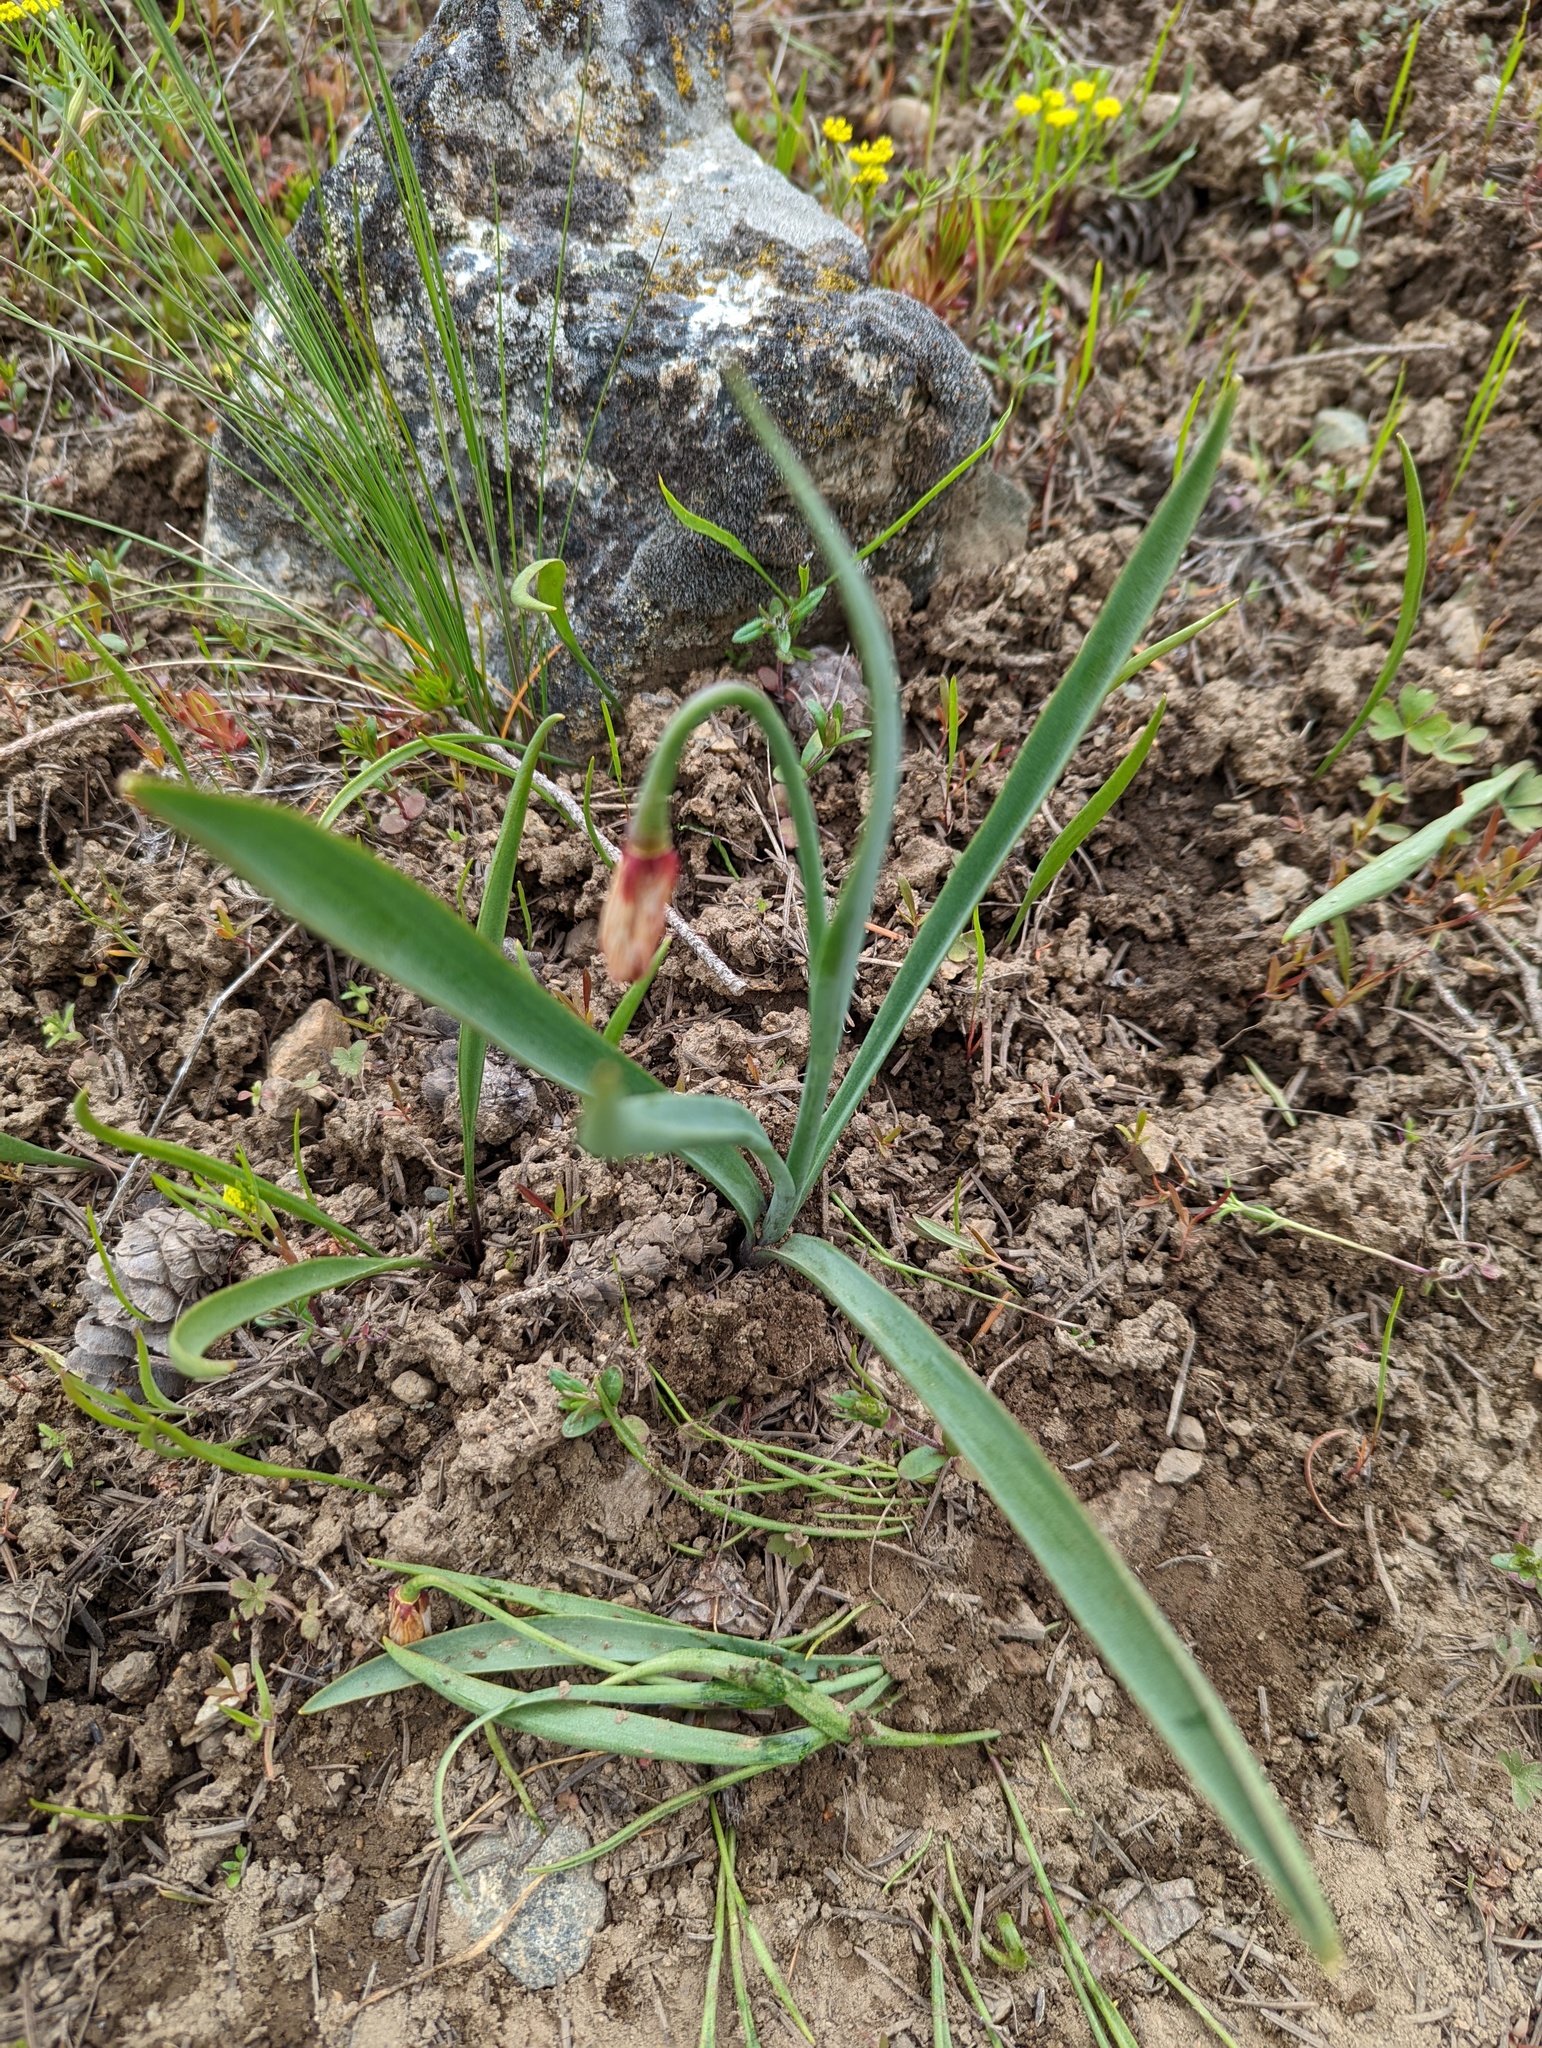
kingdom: Plantae
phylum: Tracheophyta
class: Liliopsida
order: Liliales
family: Liliaceae
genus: Fritillaria
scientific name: Fritillaria pudica
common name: Yellow fritillary
